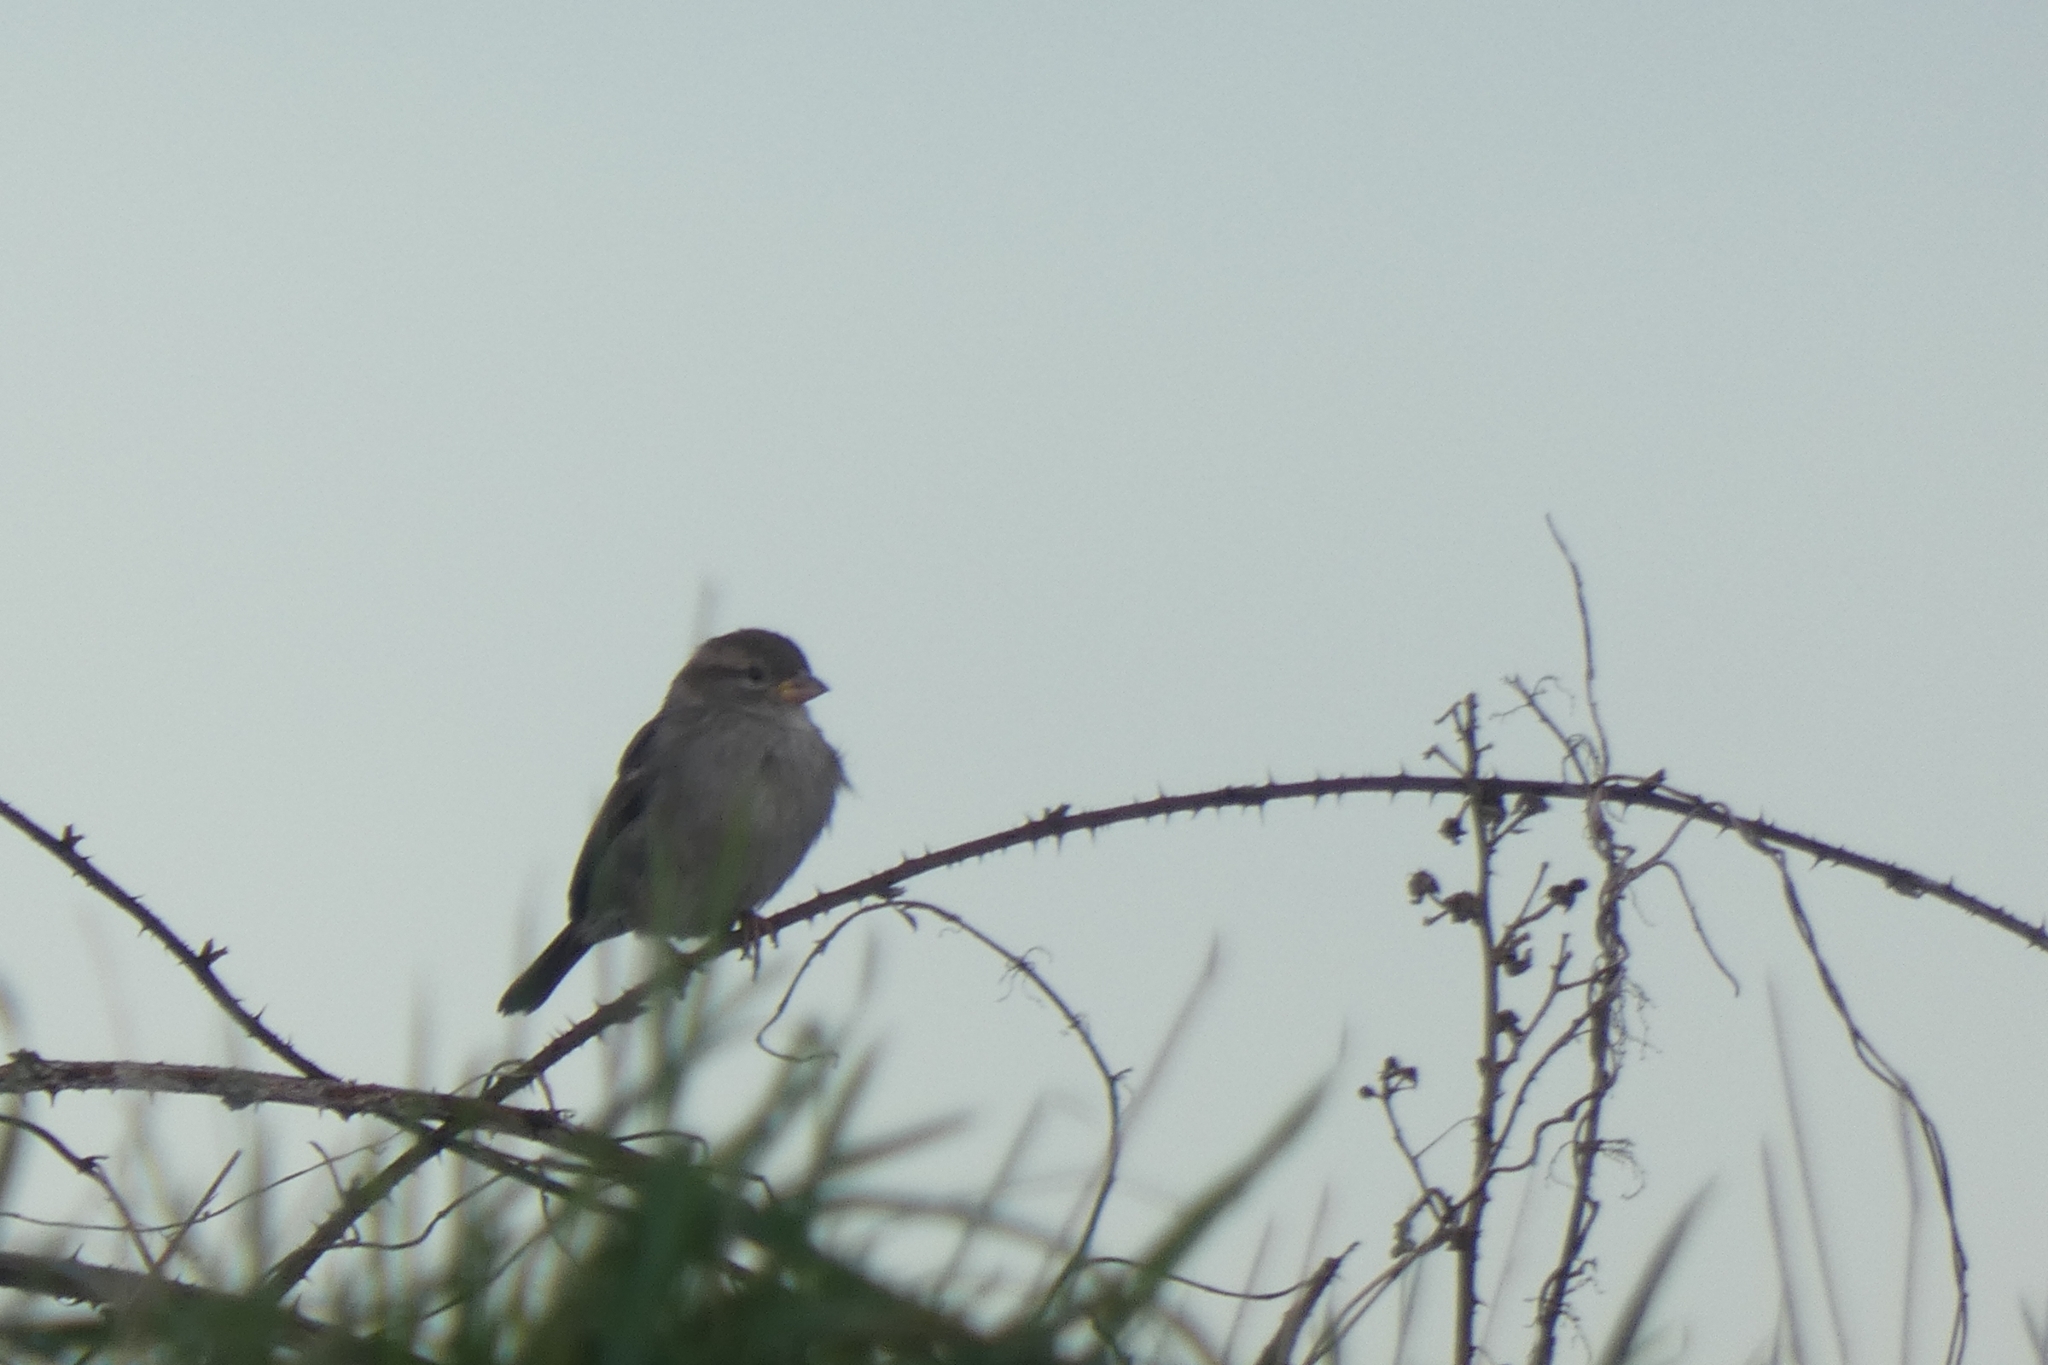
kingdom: Animalia
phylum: Chordata
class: Aves
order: Passeriformes
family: Passeridae
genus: Passer
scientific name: Passer domesticus
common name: House sparrow
